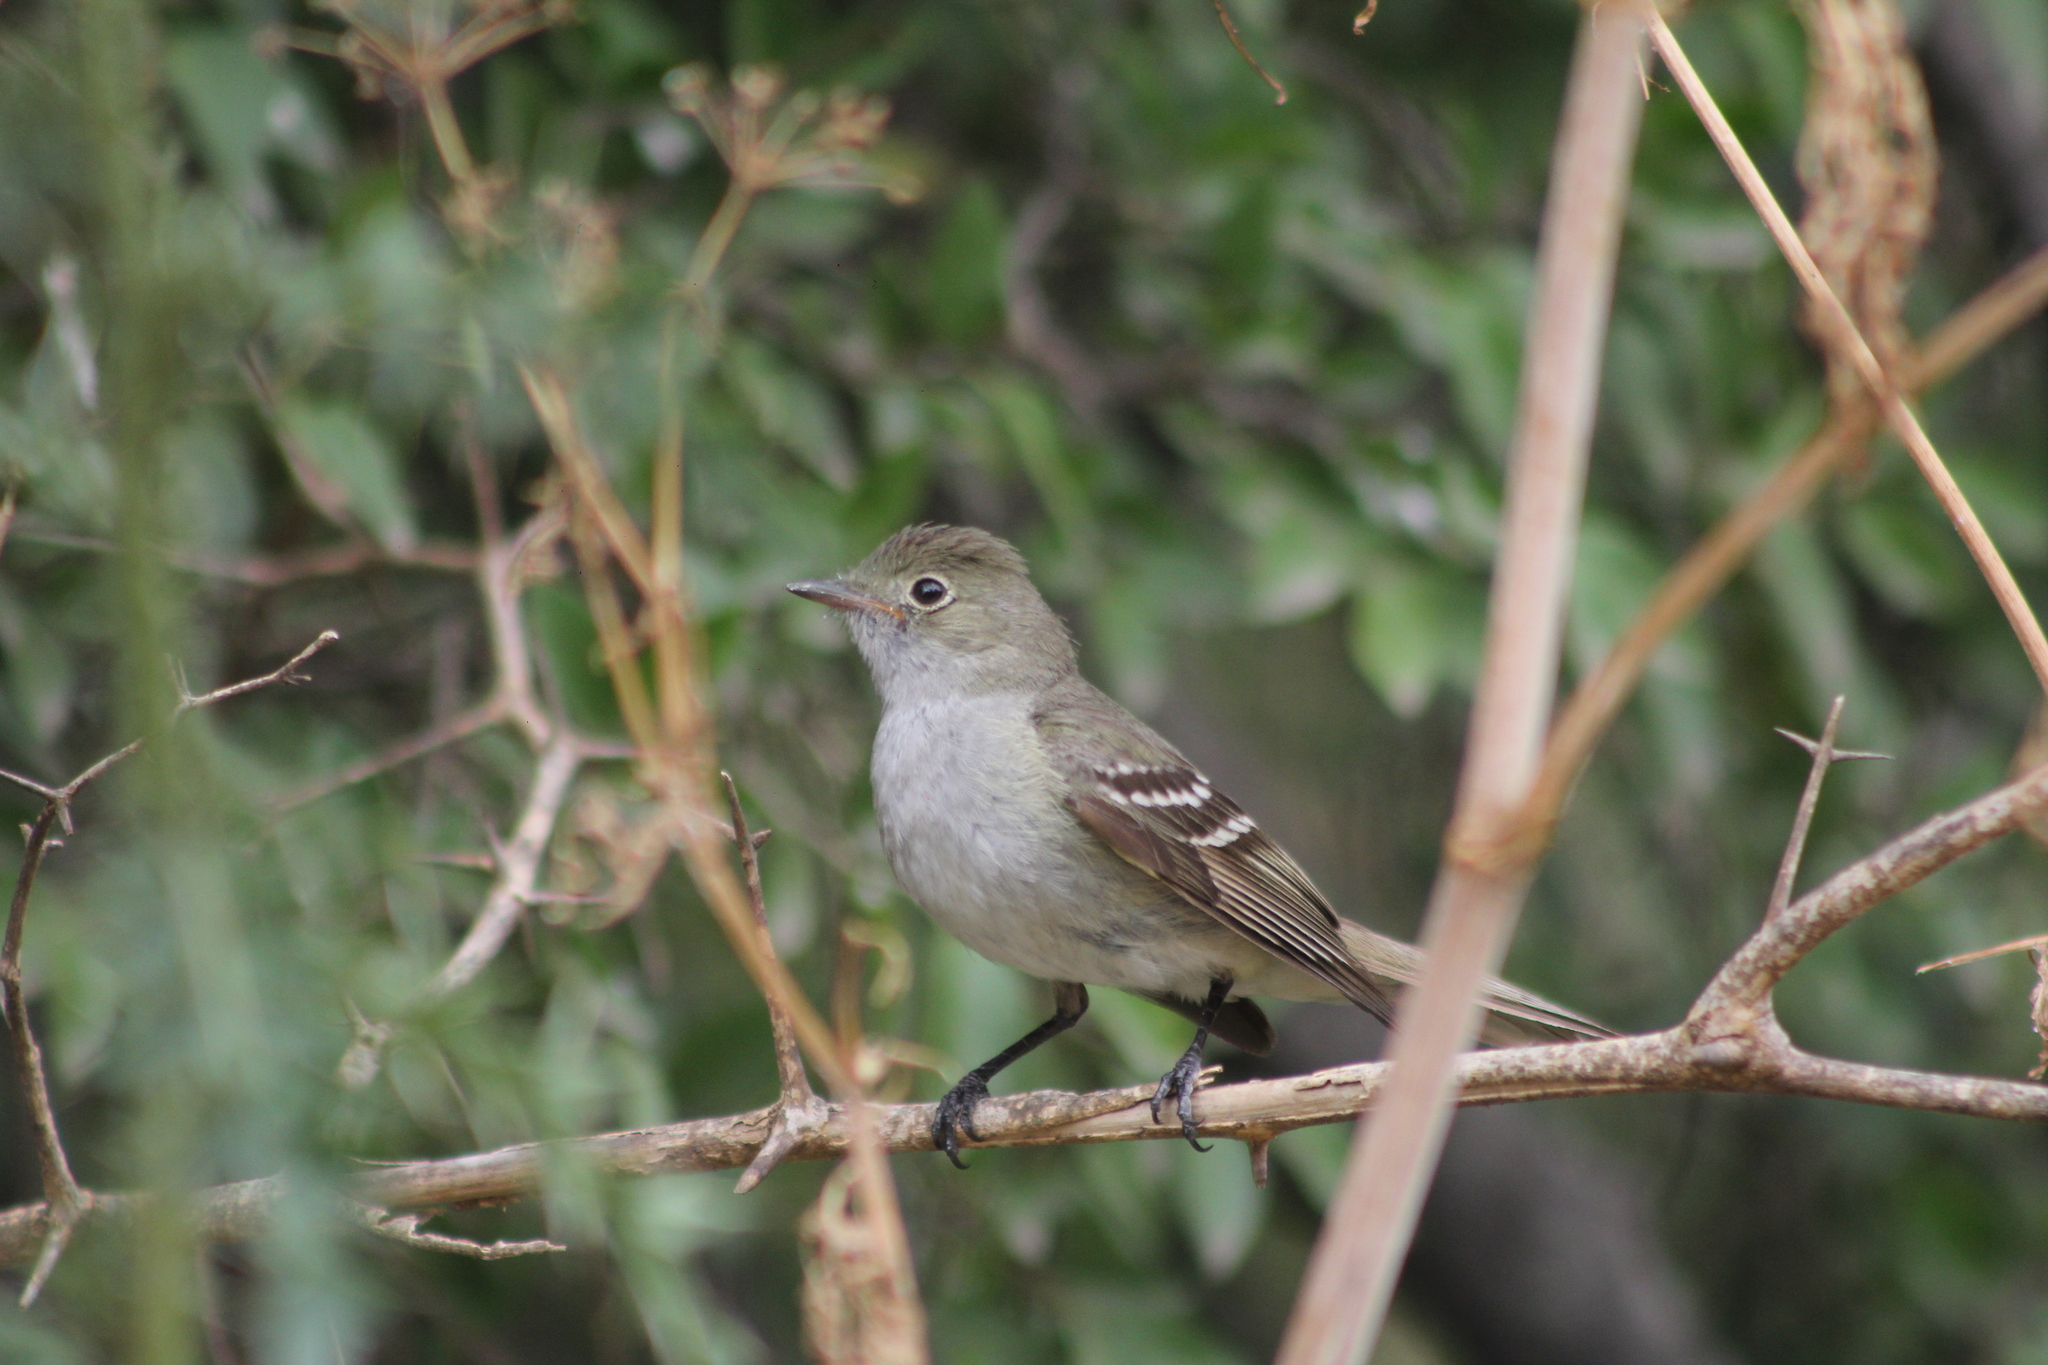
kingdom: Animalia
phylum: Chordata
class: Aves
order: Passeriformes
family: Tyrannidae
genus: Elaenia
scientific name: Elaenia parvirostris
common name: Small-billed elaenia
